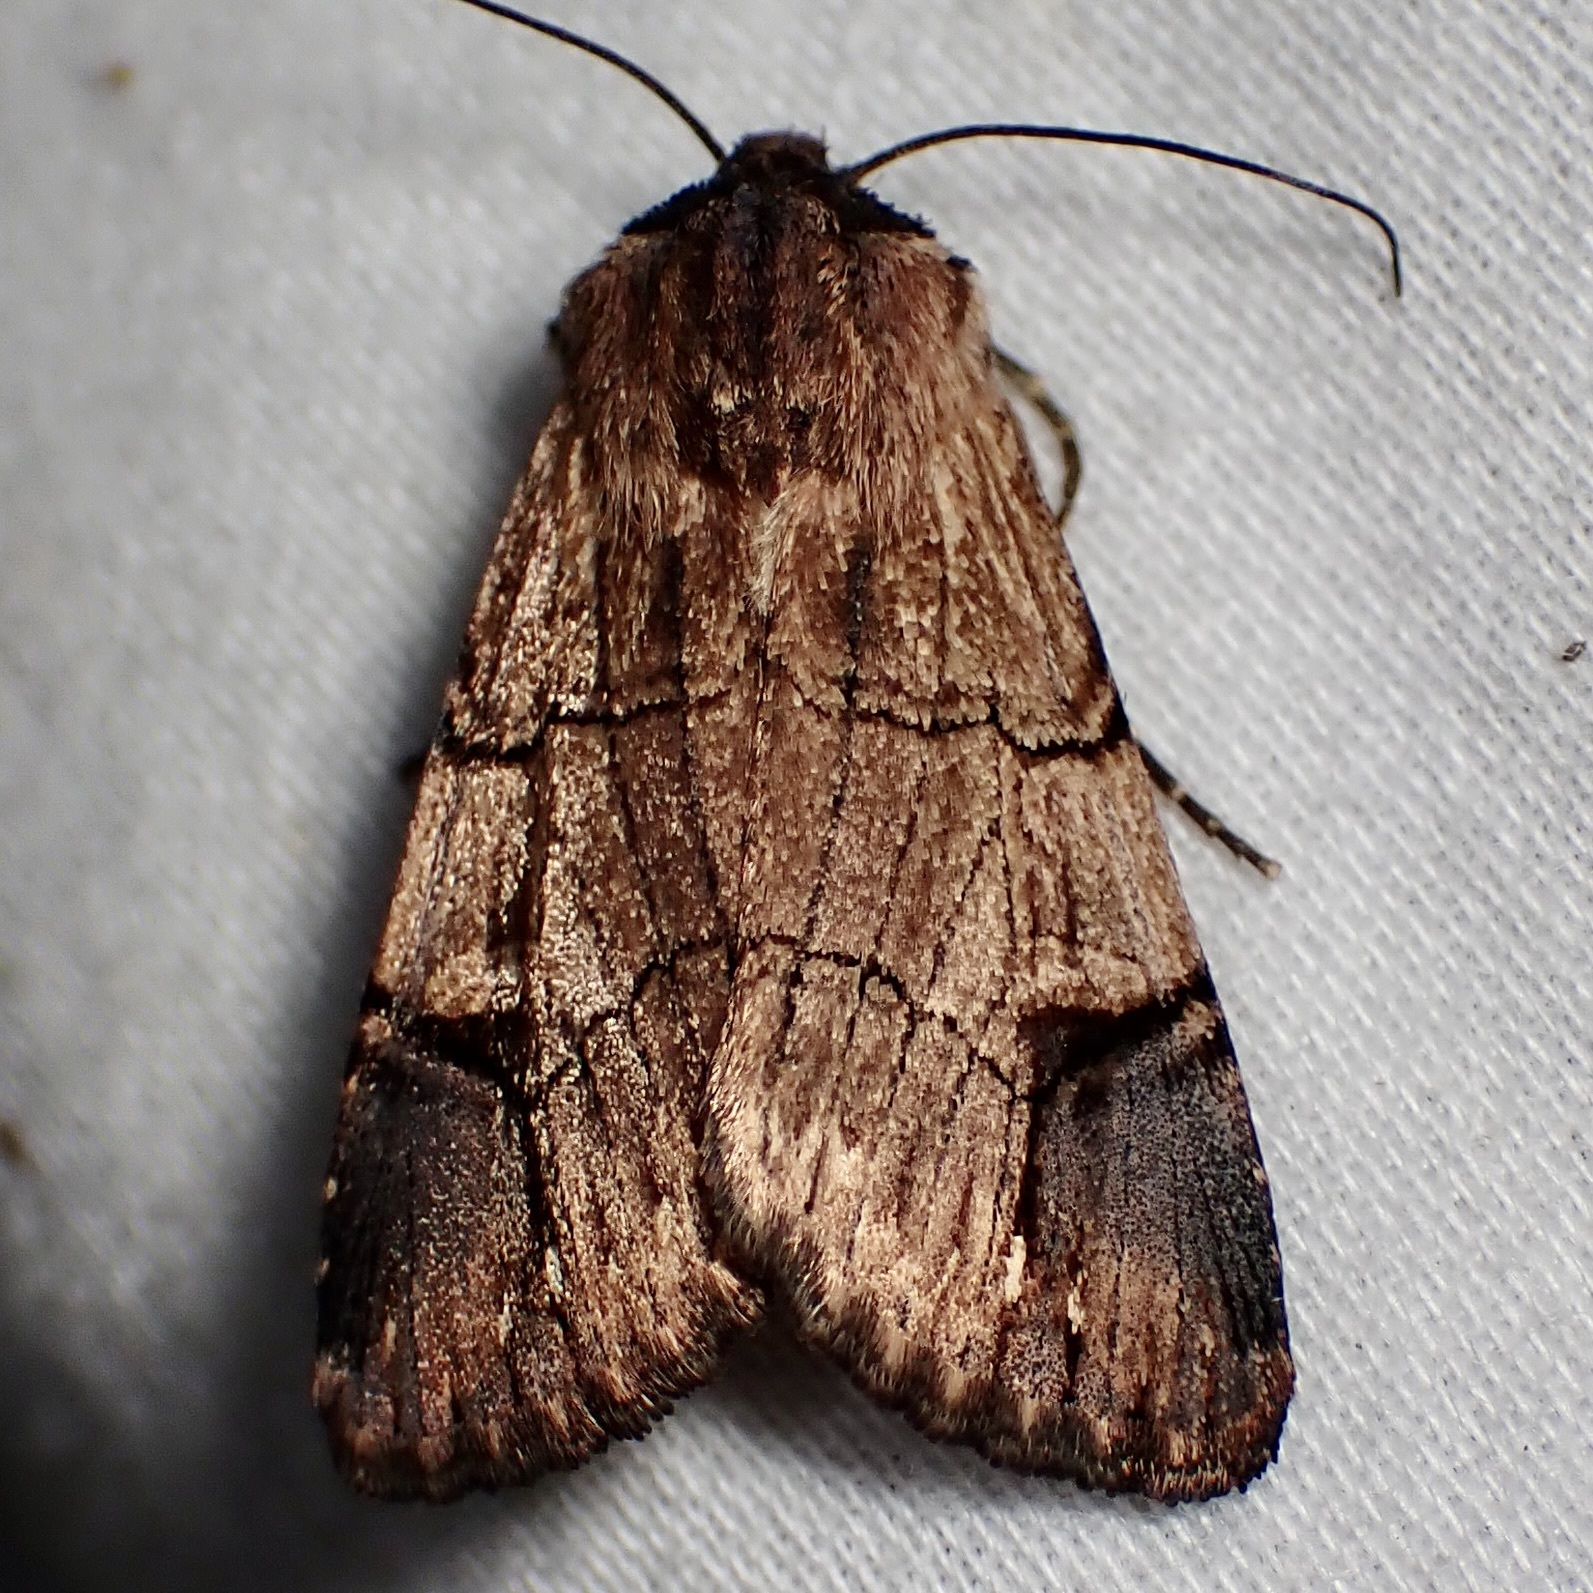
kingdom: Animalia
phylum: Arthropoda
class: Insecta
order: Lepidoptera
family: Noctuidae
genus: Dichagyris
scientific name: Dichagyris grotei
